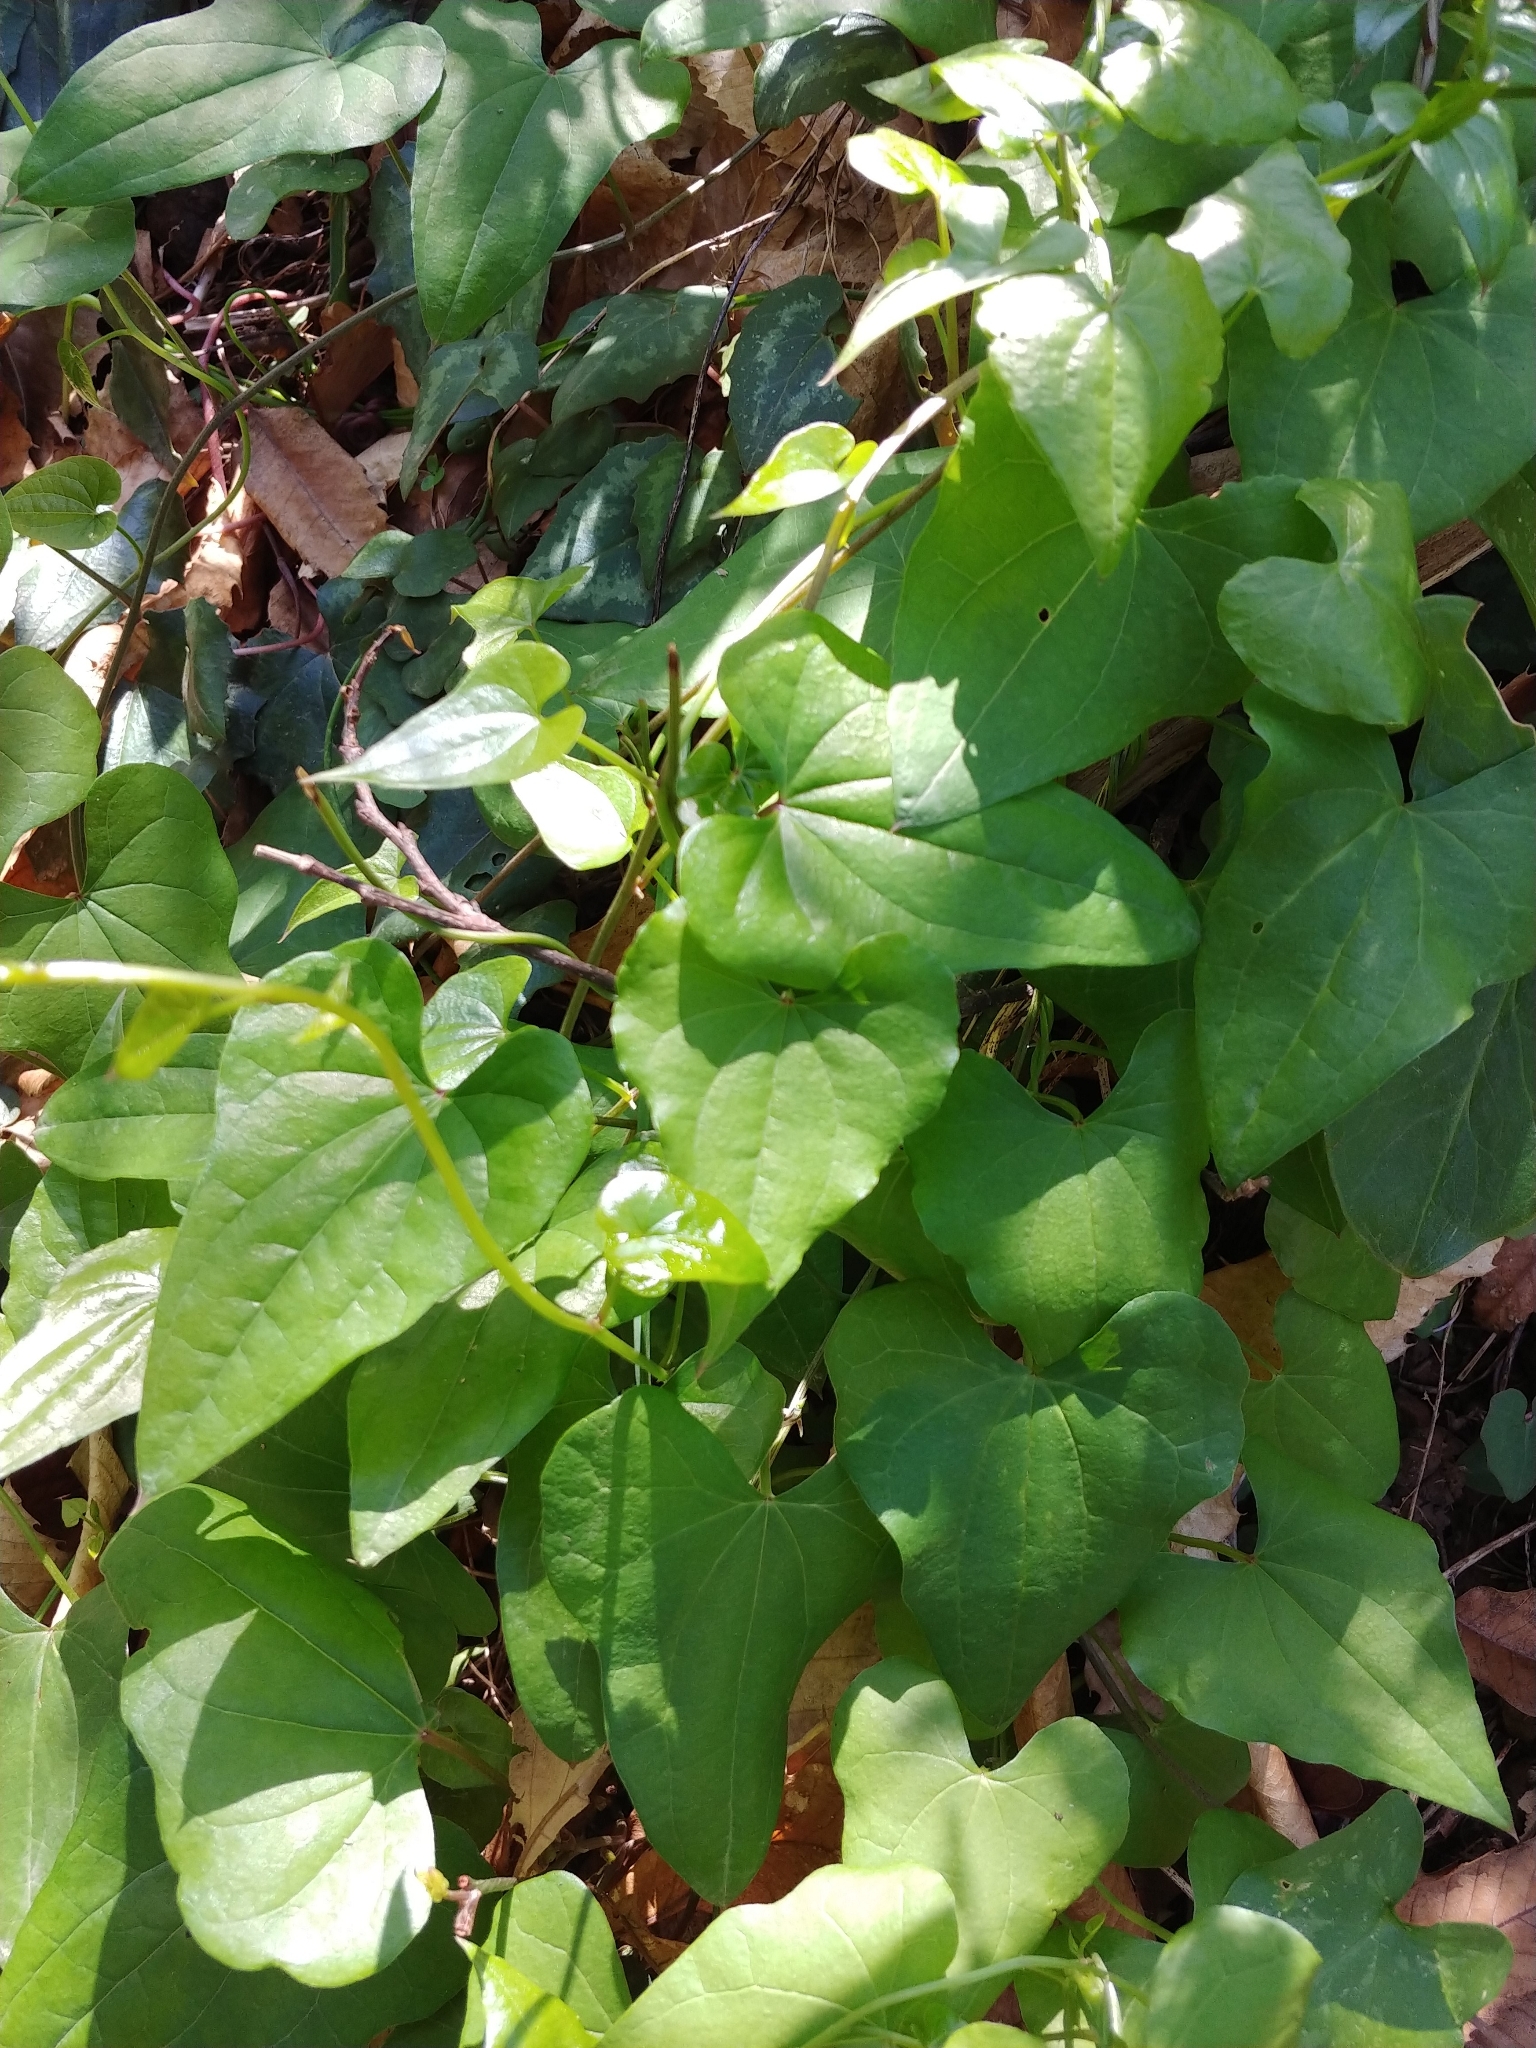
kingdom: Plantae
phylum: Tracheophyta
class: Liliopsida
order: Dioscoreales
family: Dioscoreaceae
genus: Dioscorea
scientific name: Dioscorea communis
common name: Black-bindweed
